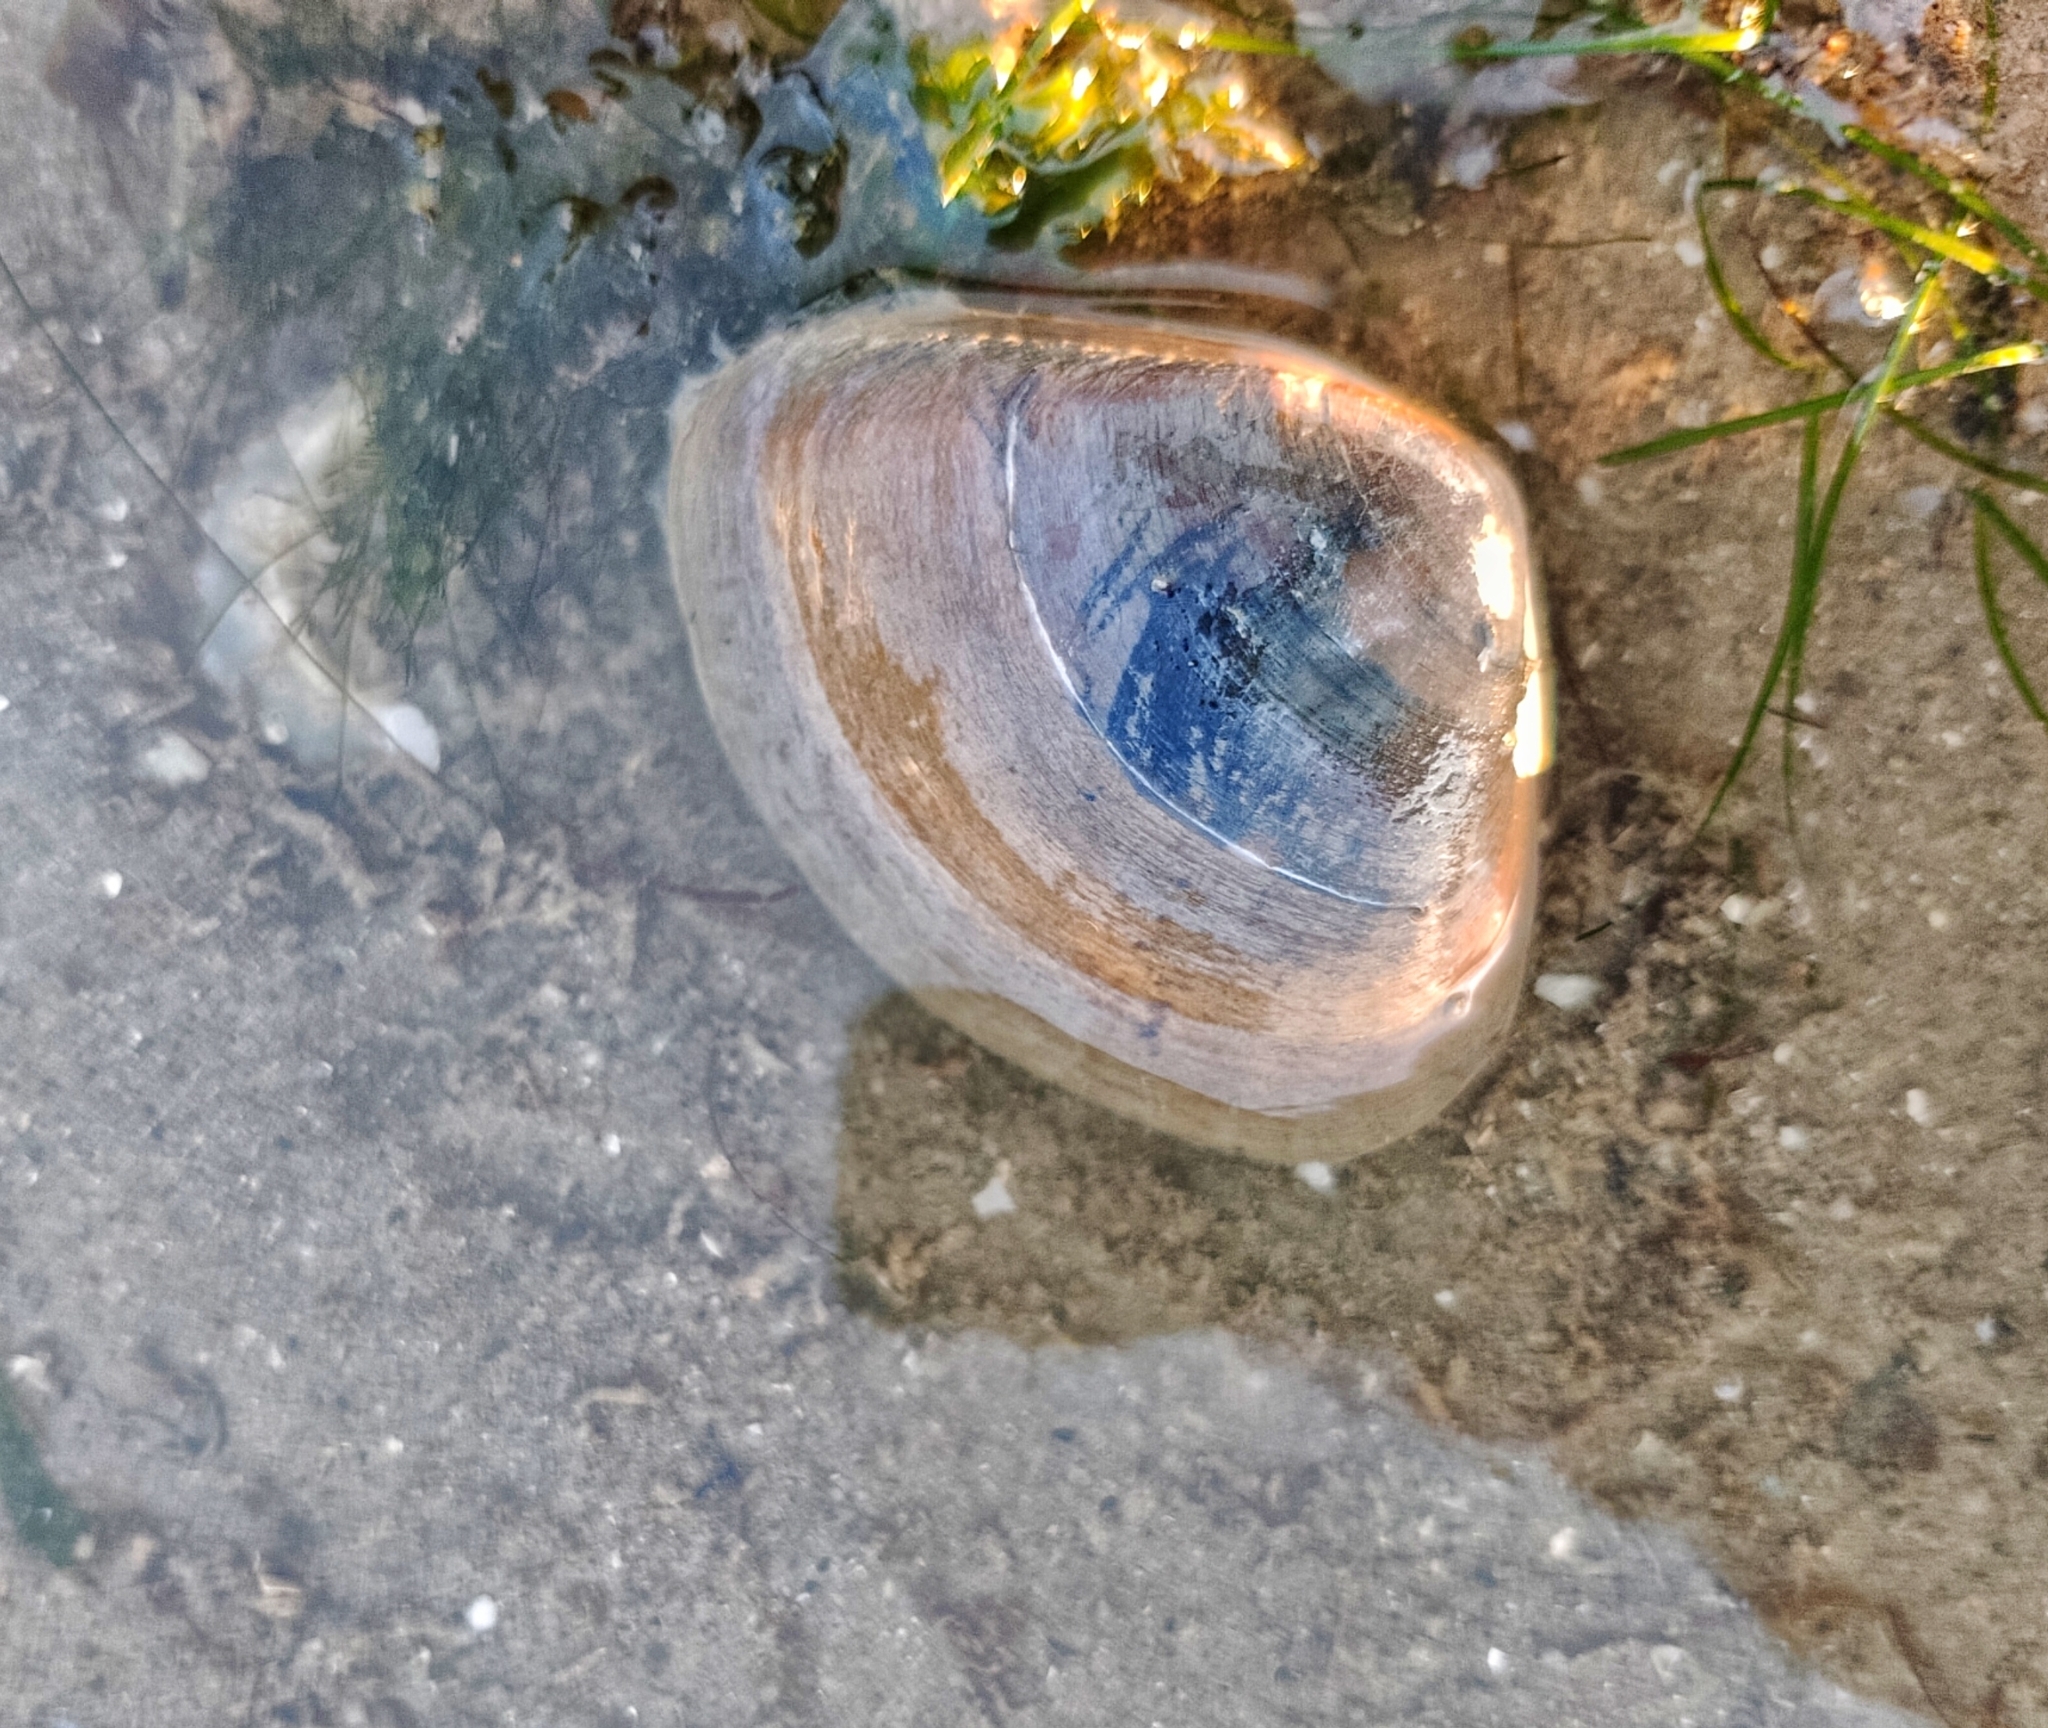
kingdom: Animalia
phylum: Mollusca
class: Bivalvia
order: Venerida
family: Mactridae
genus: Mactra
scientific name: Mactra grandis
